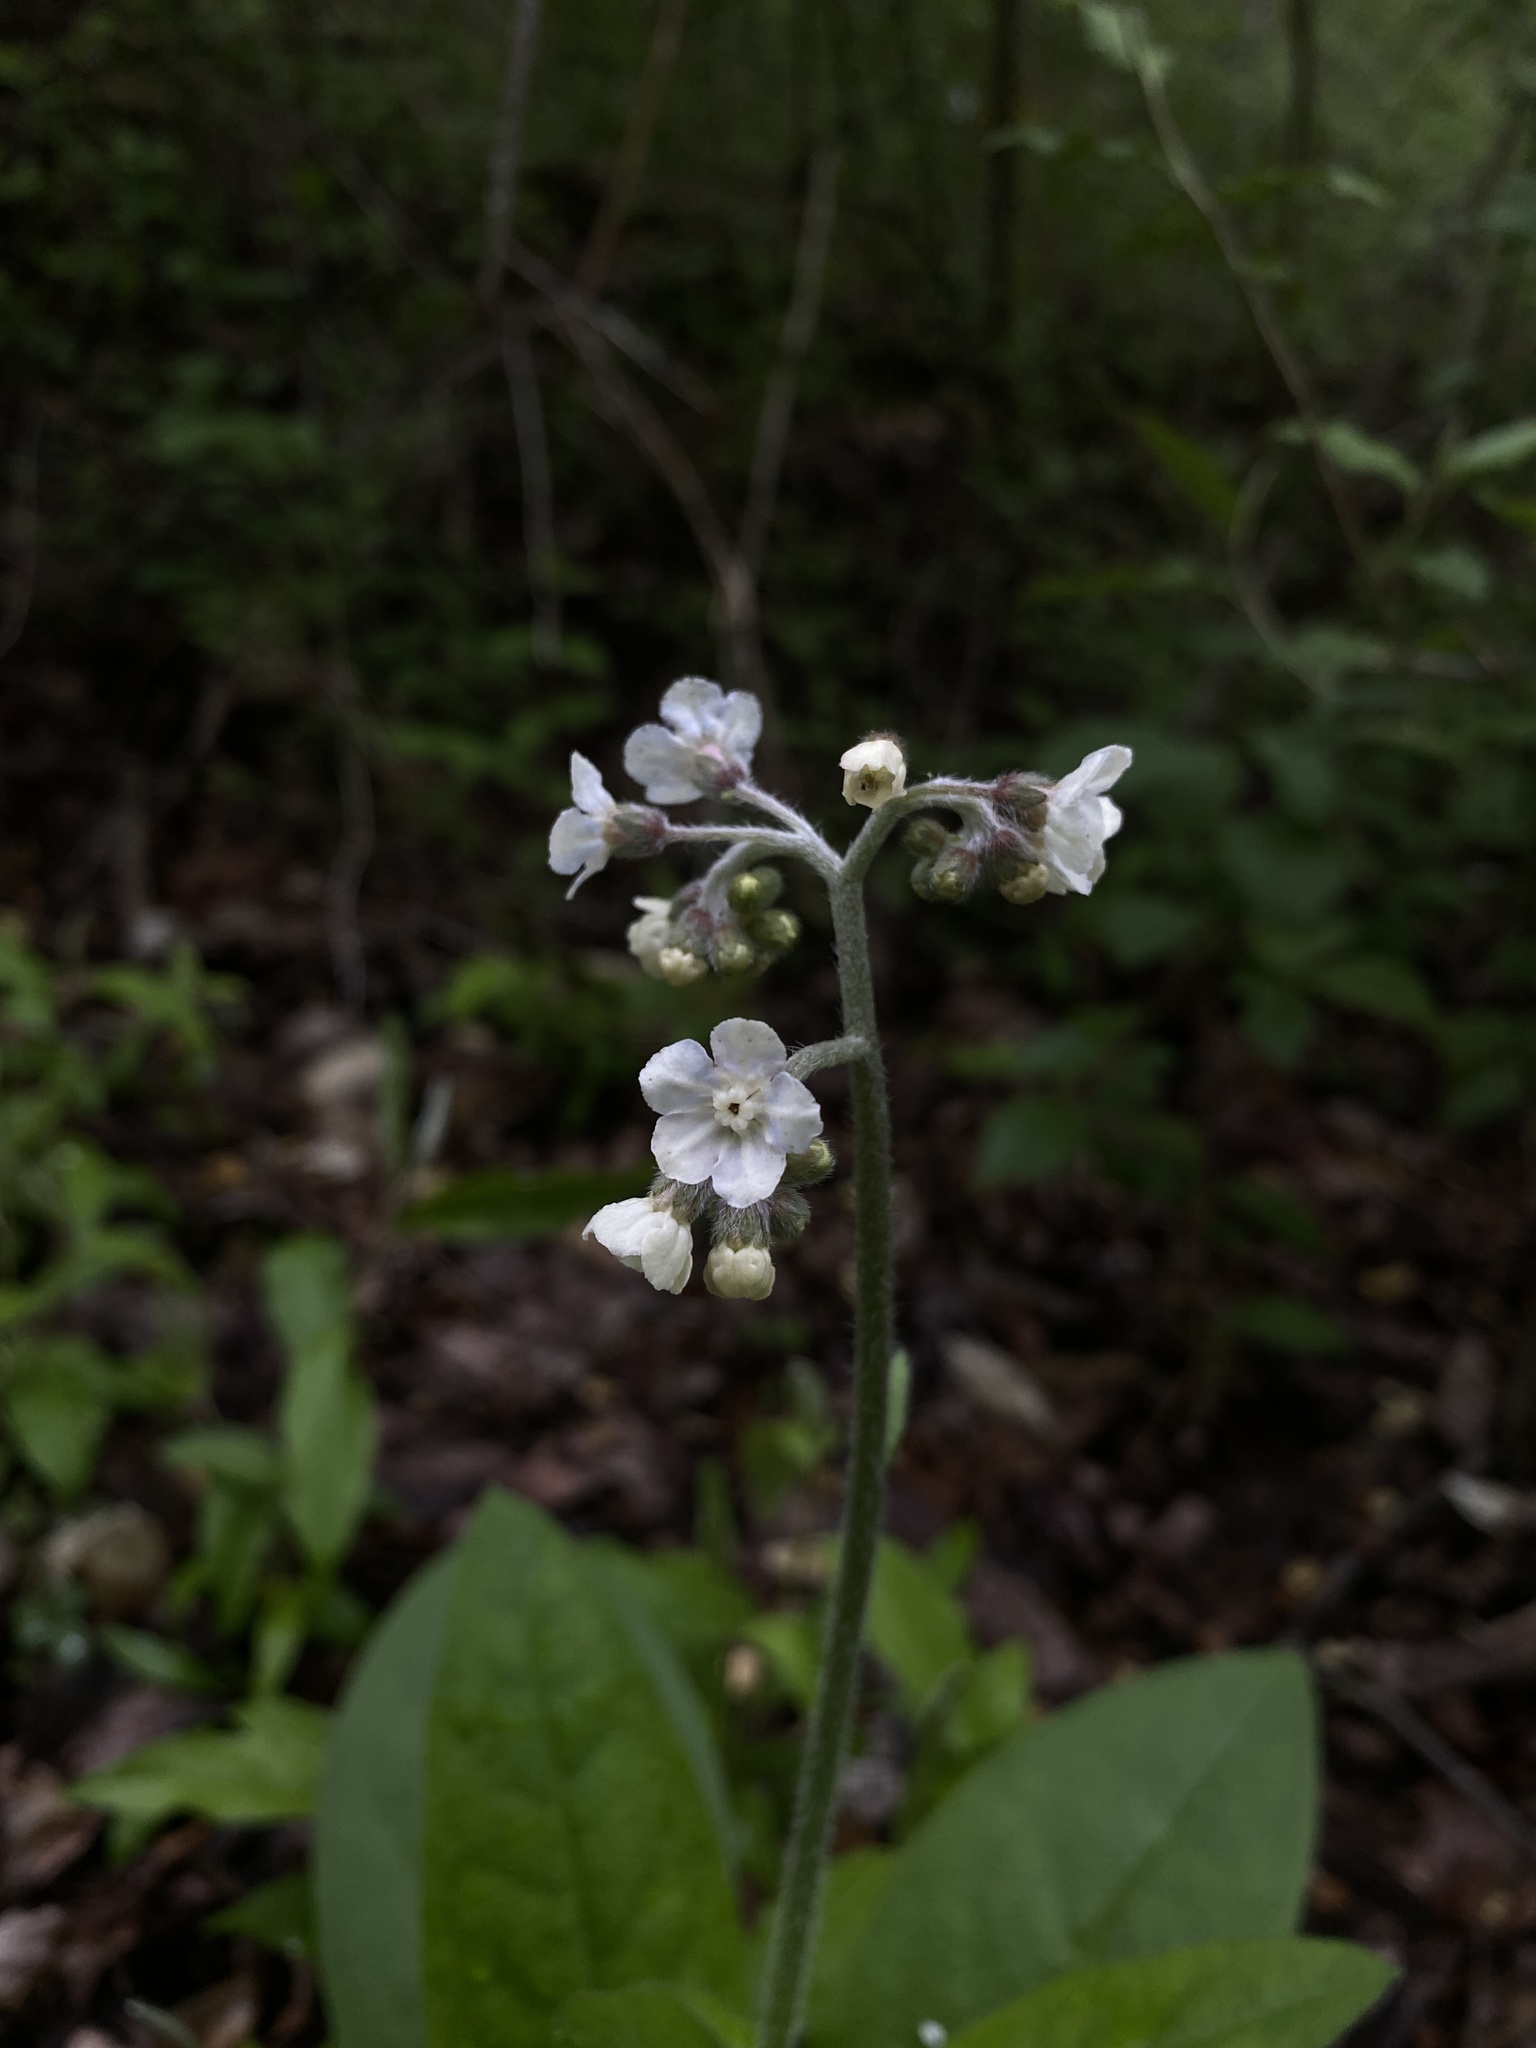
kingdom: Plantae
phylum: Tracheophyta
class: Magnoliopsida
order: Boraginales
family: Boraginaceae
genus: Andersonglossum
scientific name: Andersonglossum virginianum
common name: Wild comfrey
